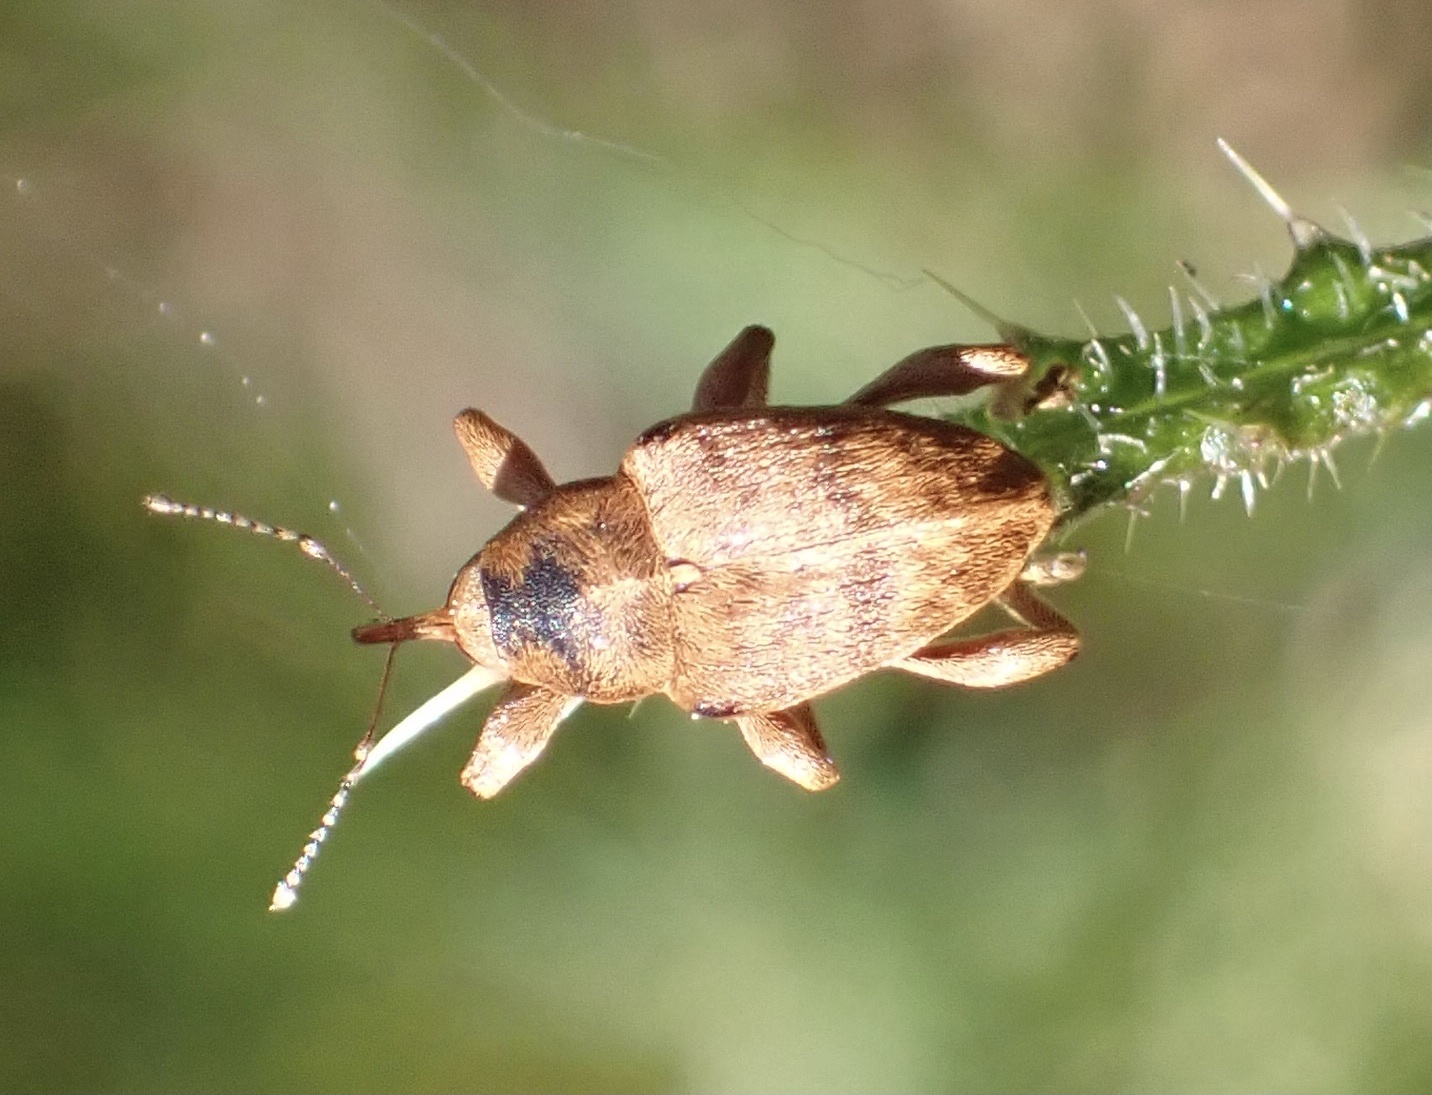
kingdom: Animalia
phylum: Arthropoda
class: Insecta
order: Coleoptera
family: Curculionidae
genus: Curculio
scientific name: Curculio venosus
